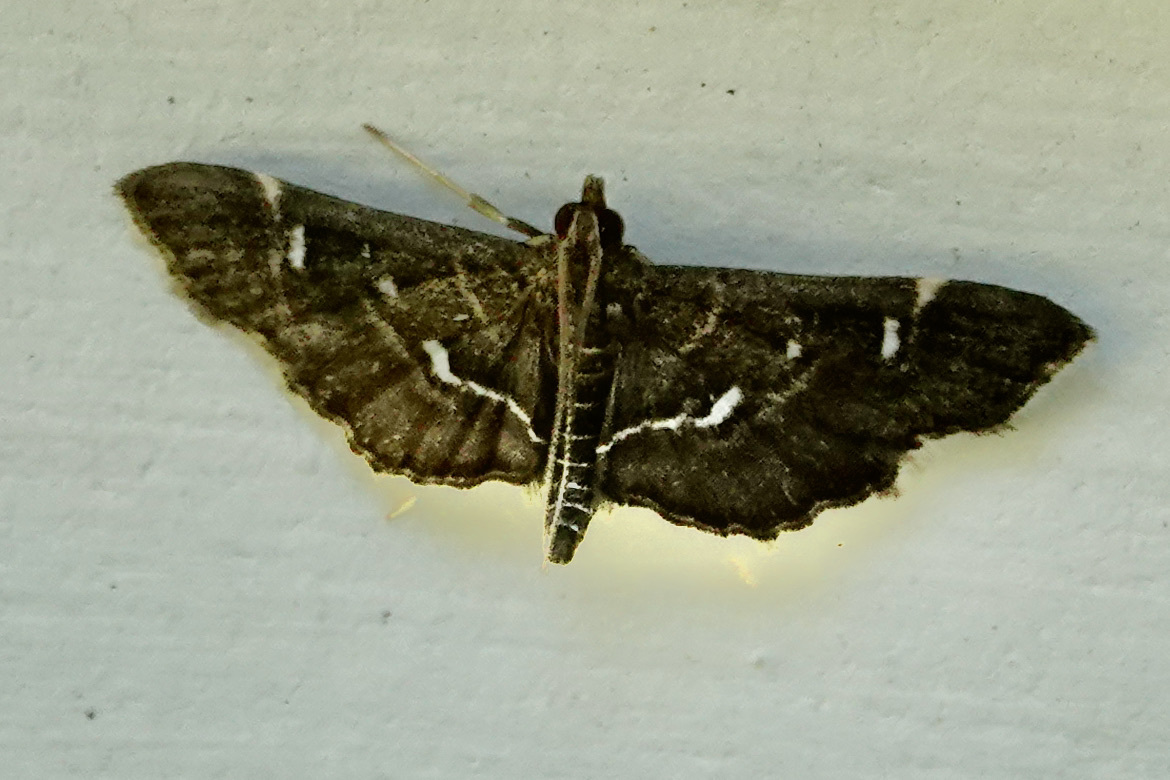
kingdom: Animalia
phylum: Arthropoda
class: Insecta
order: Lepidoptera
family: Crambidae
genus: Diathrausta
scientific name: Diathrausta
